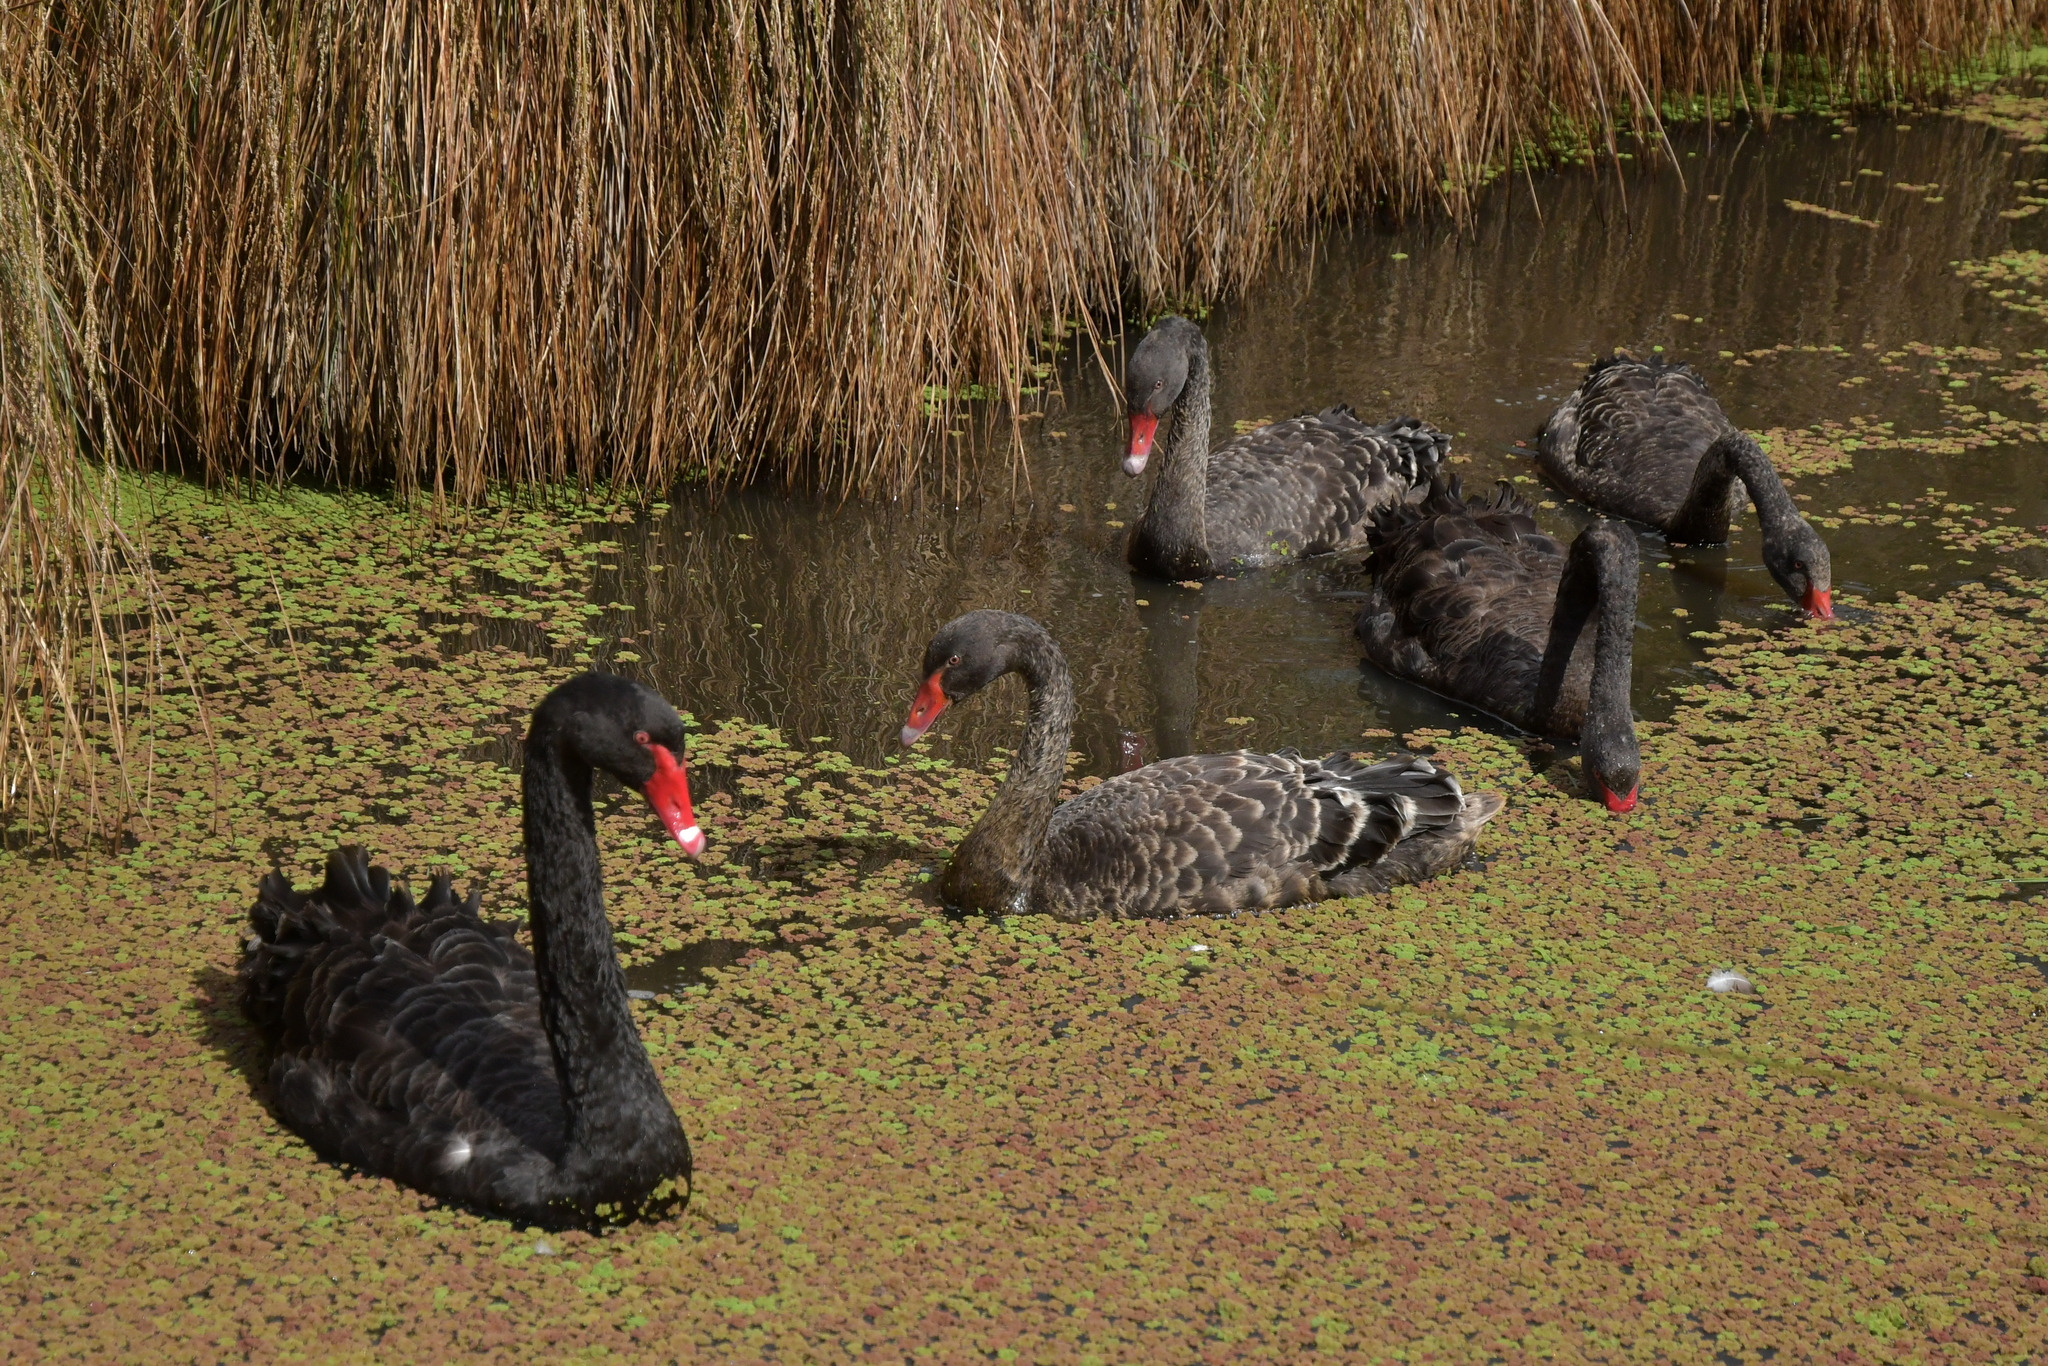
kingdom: Animalia
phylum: Chordata
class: Aves
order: Anseriformes
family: Anatidae
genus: Cygnus
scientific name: Cygnus atratus
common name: Black swan
